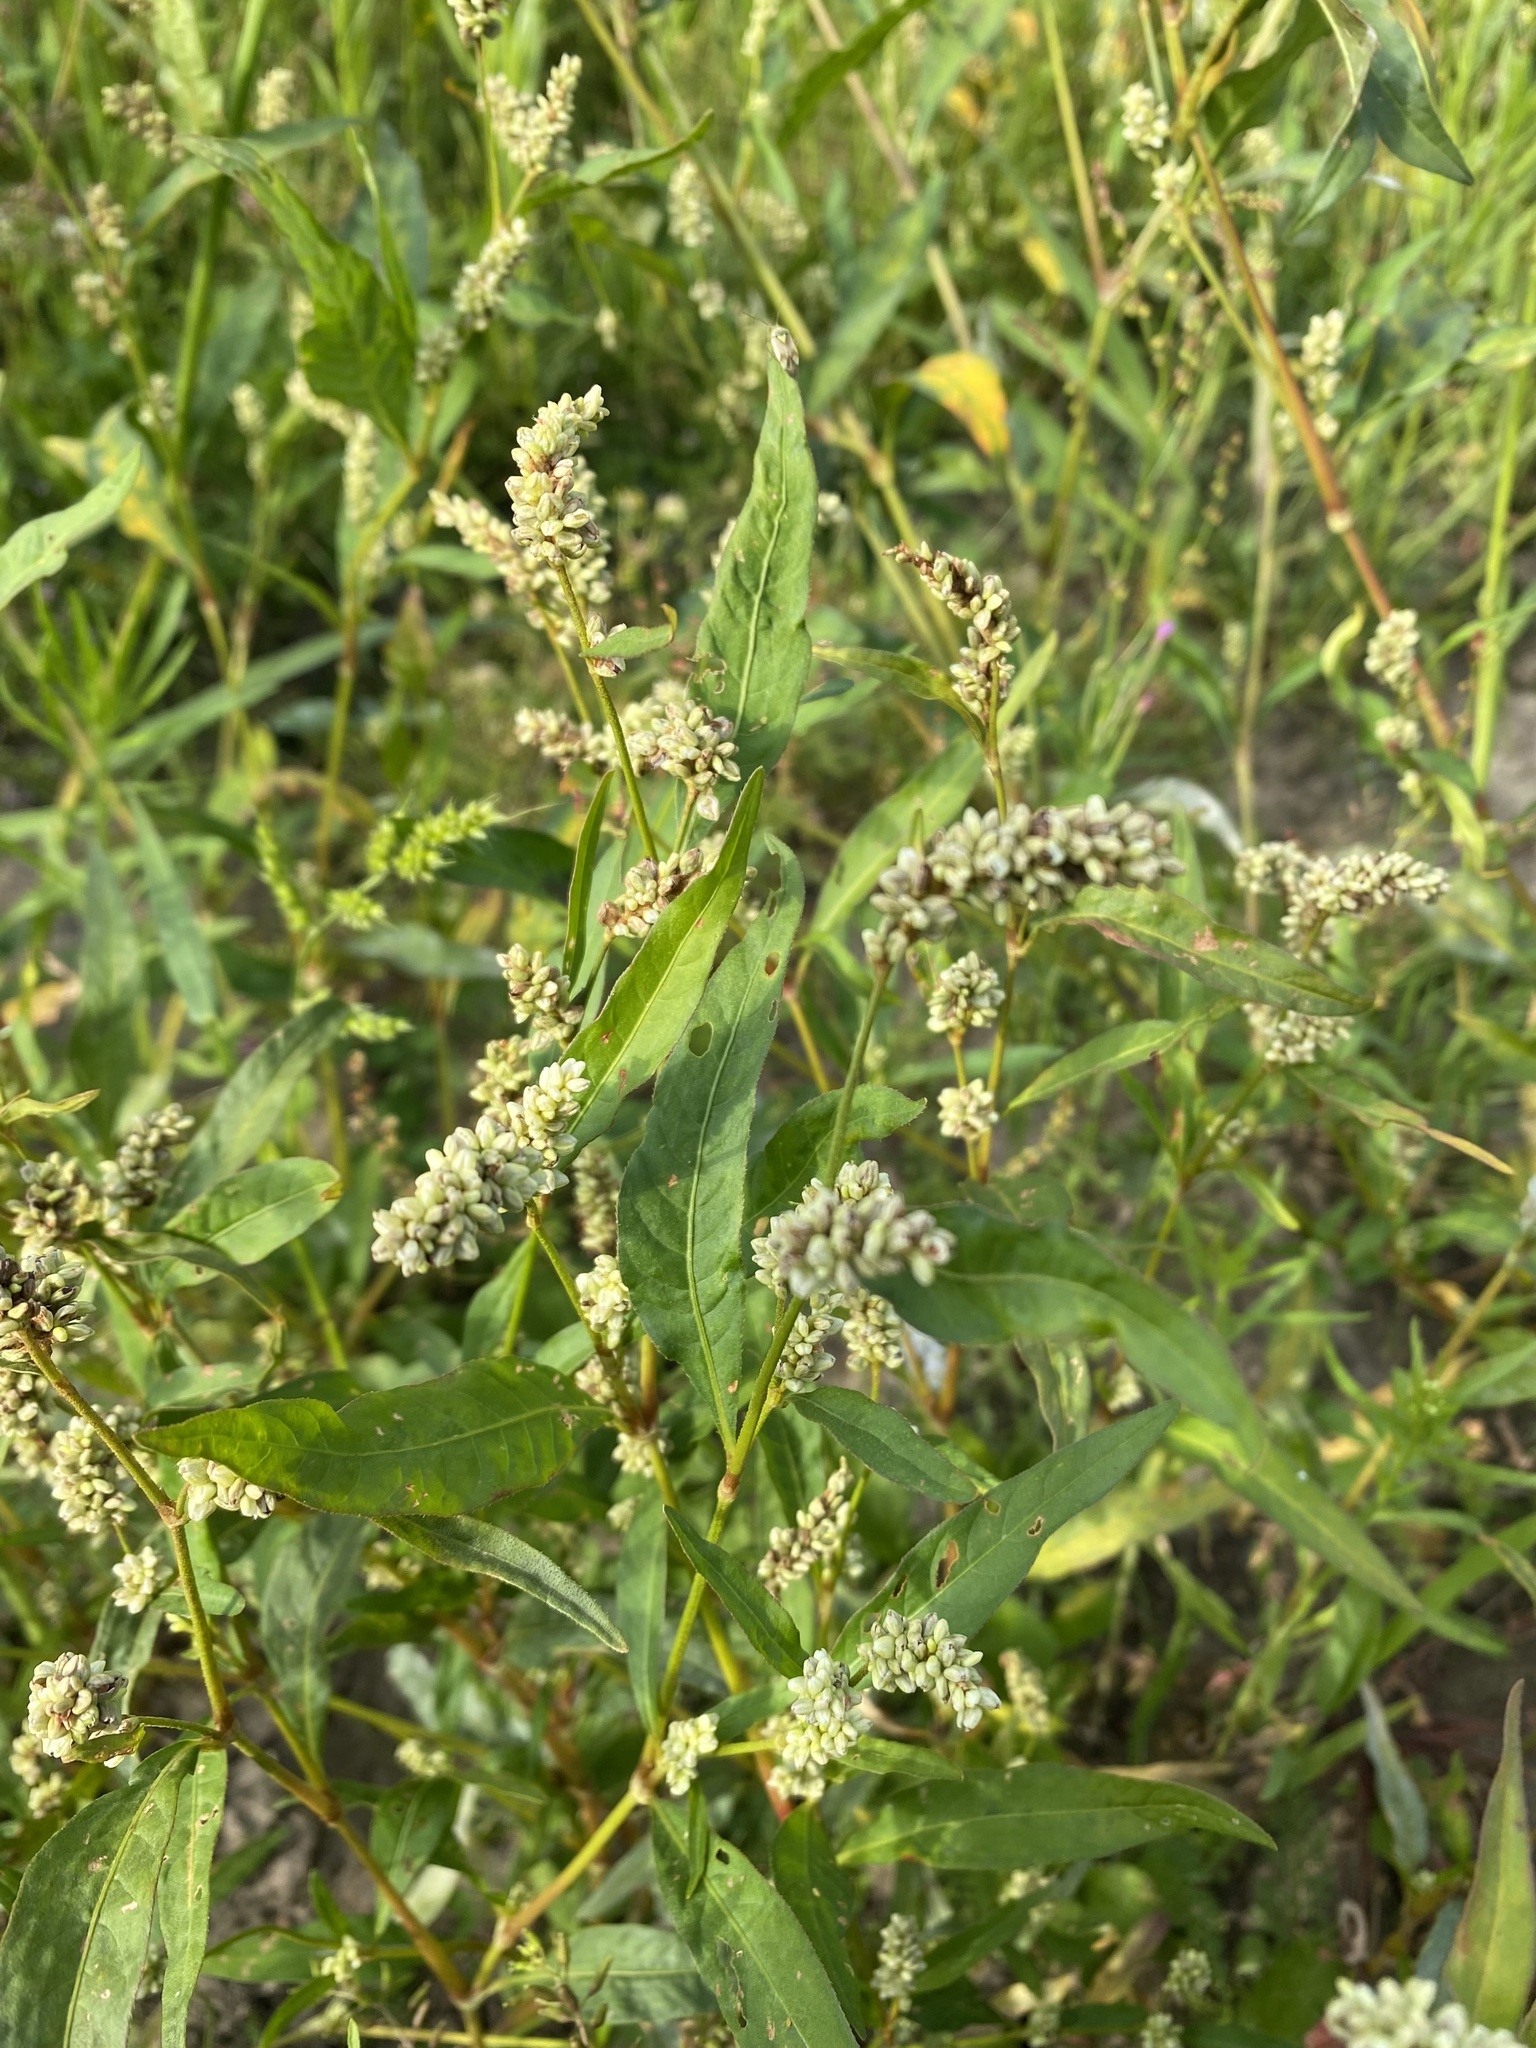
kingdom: Plantae
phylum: Tracheophyta
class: Magnoliopsida
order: Caryophyllales
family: Polygonaceae
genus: Persicaria
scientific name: Persicaria lapathifolia
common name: Curlytop knotweed
